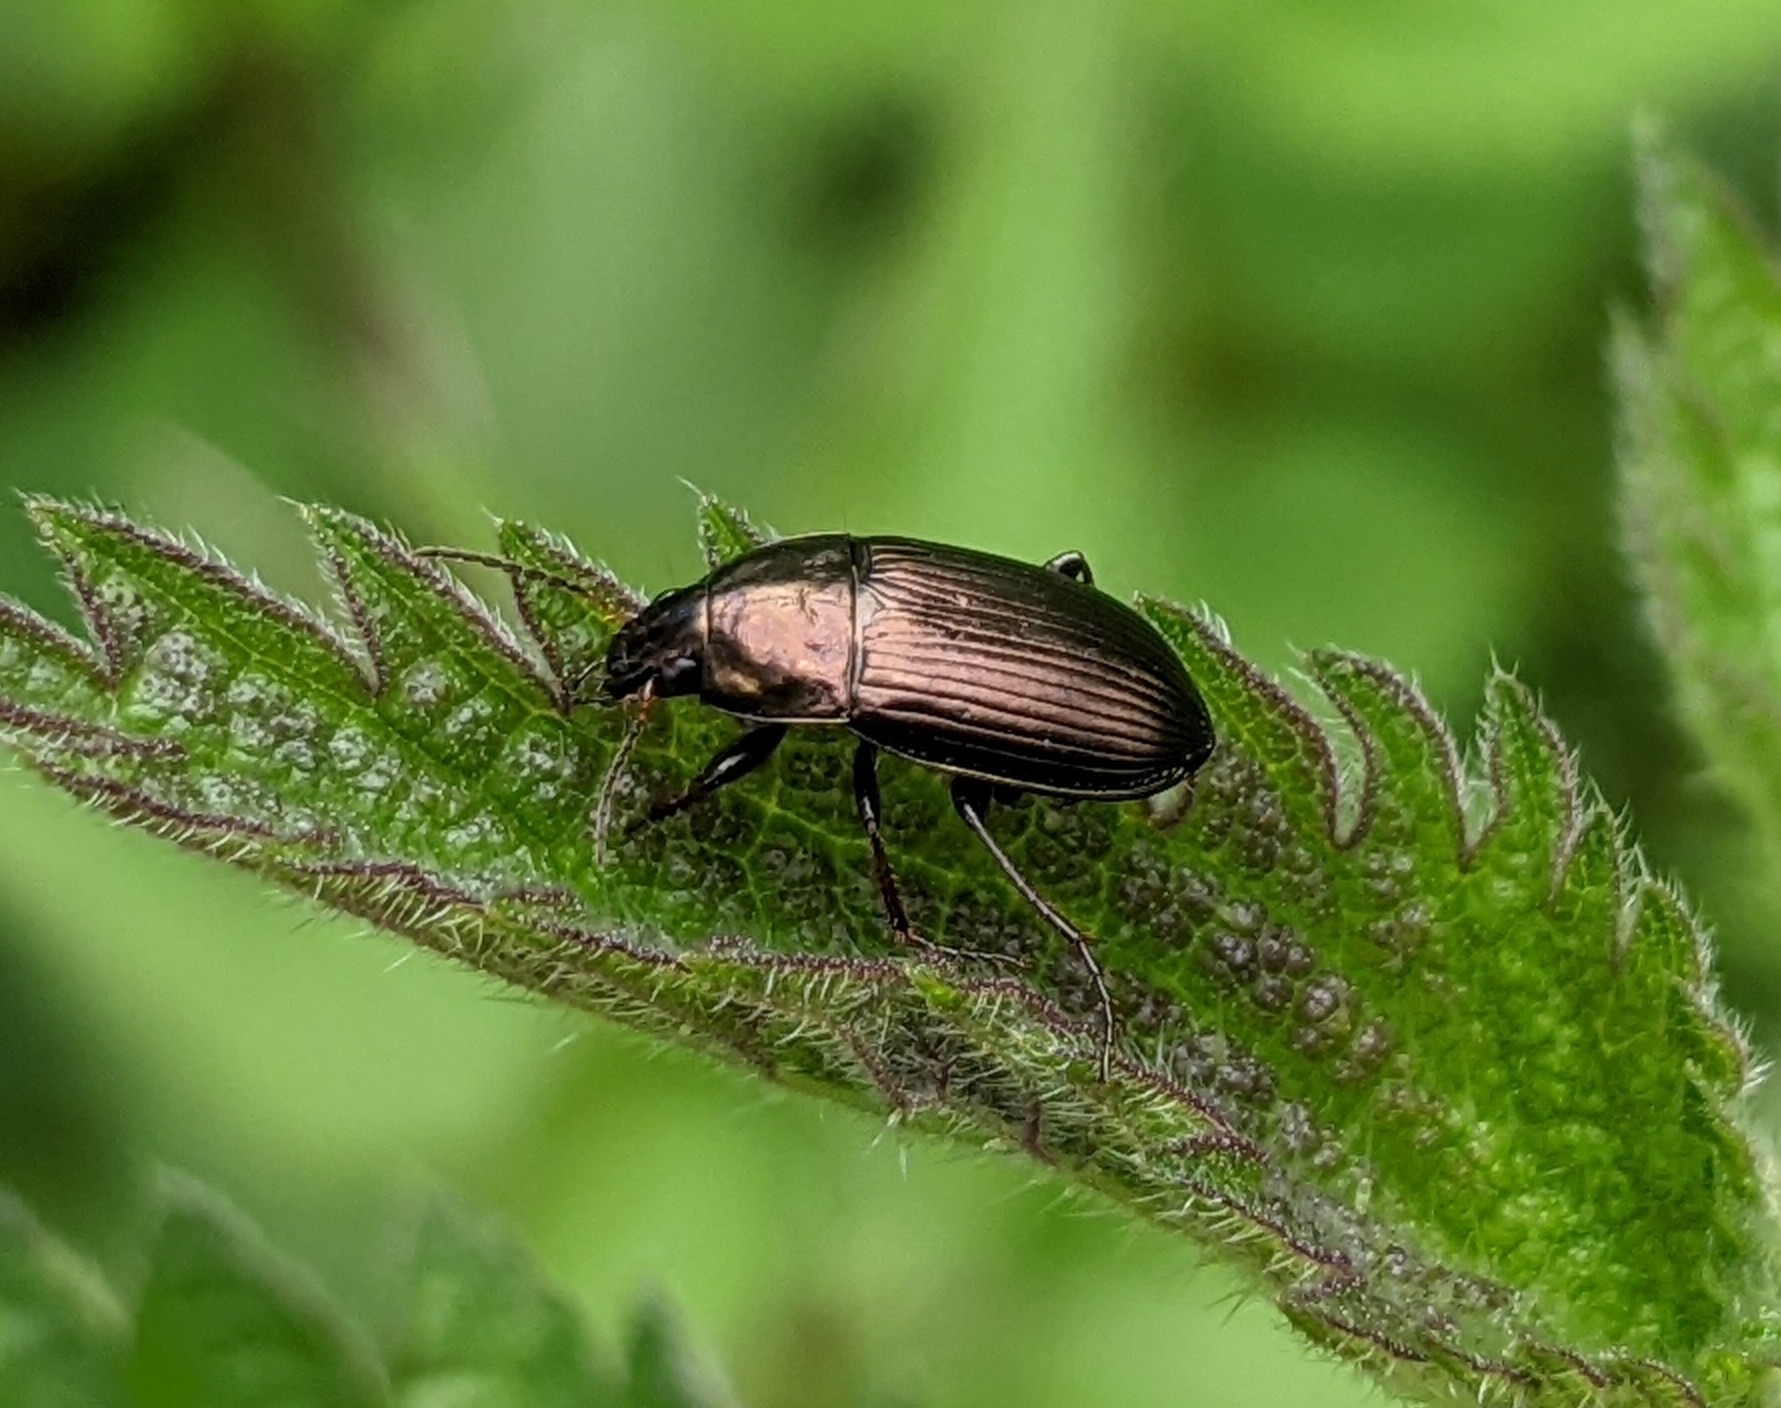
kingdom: Animalia
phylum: Arthropoda
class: Insecta
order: Coleoptera
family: Carabidae
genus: Amara
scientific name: Amara aenea
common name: Common sun beetle
